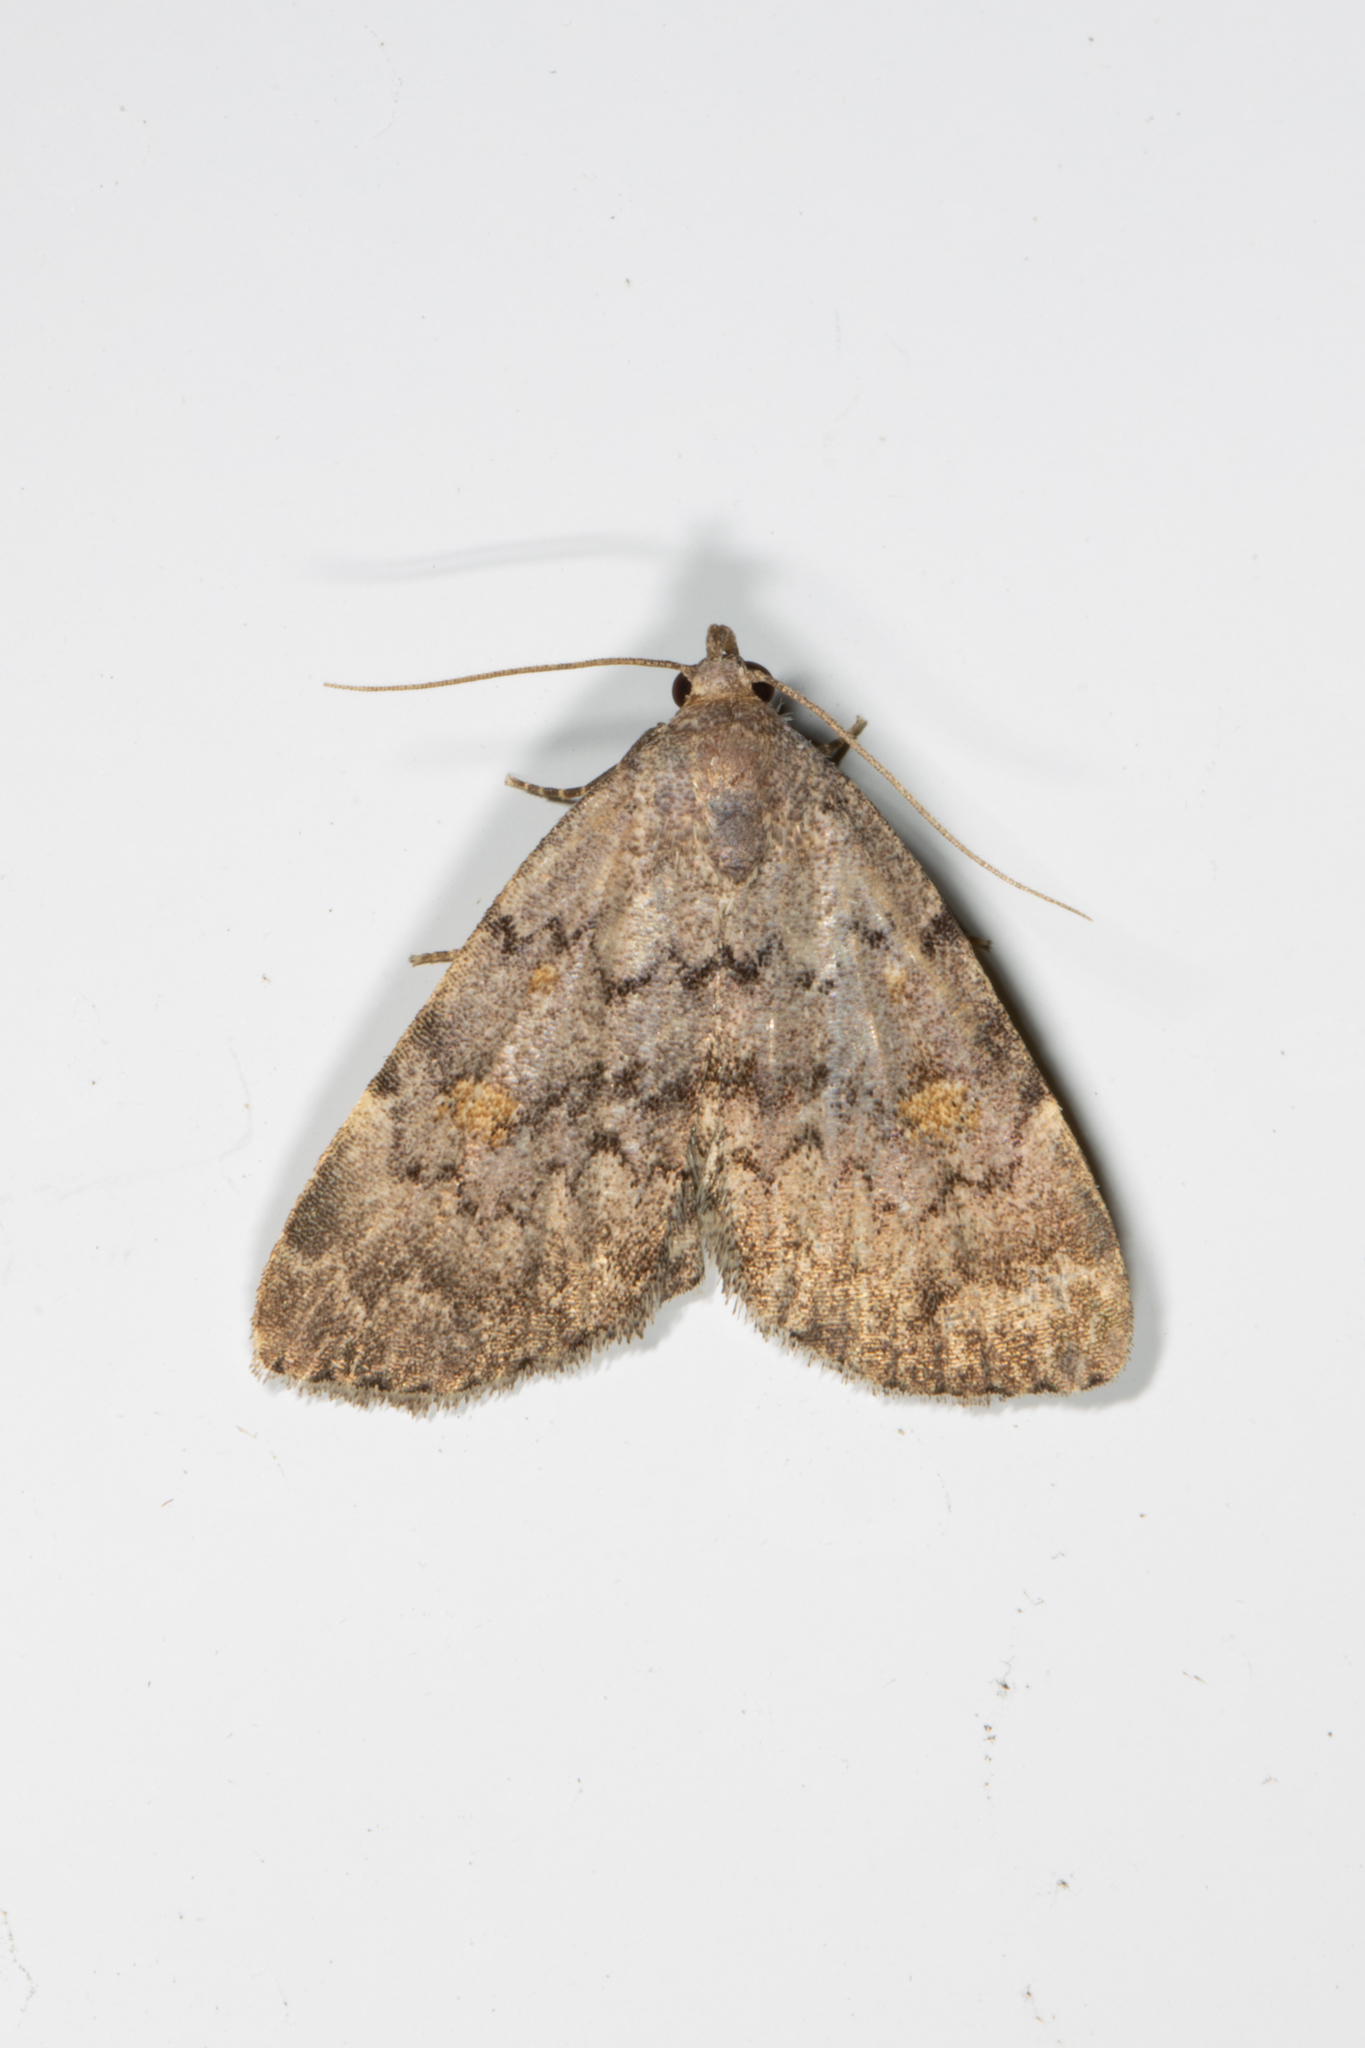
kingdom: Animalia
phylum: Arthropoda
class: Insecta
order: Lepidoptera
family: Erebidae
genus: Idia
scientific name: Idia aemula
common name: Common idia moth
